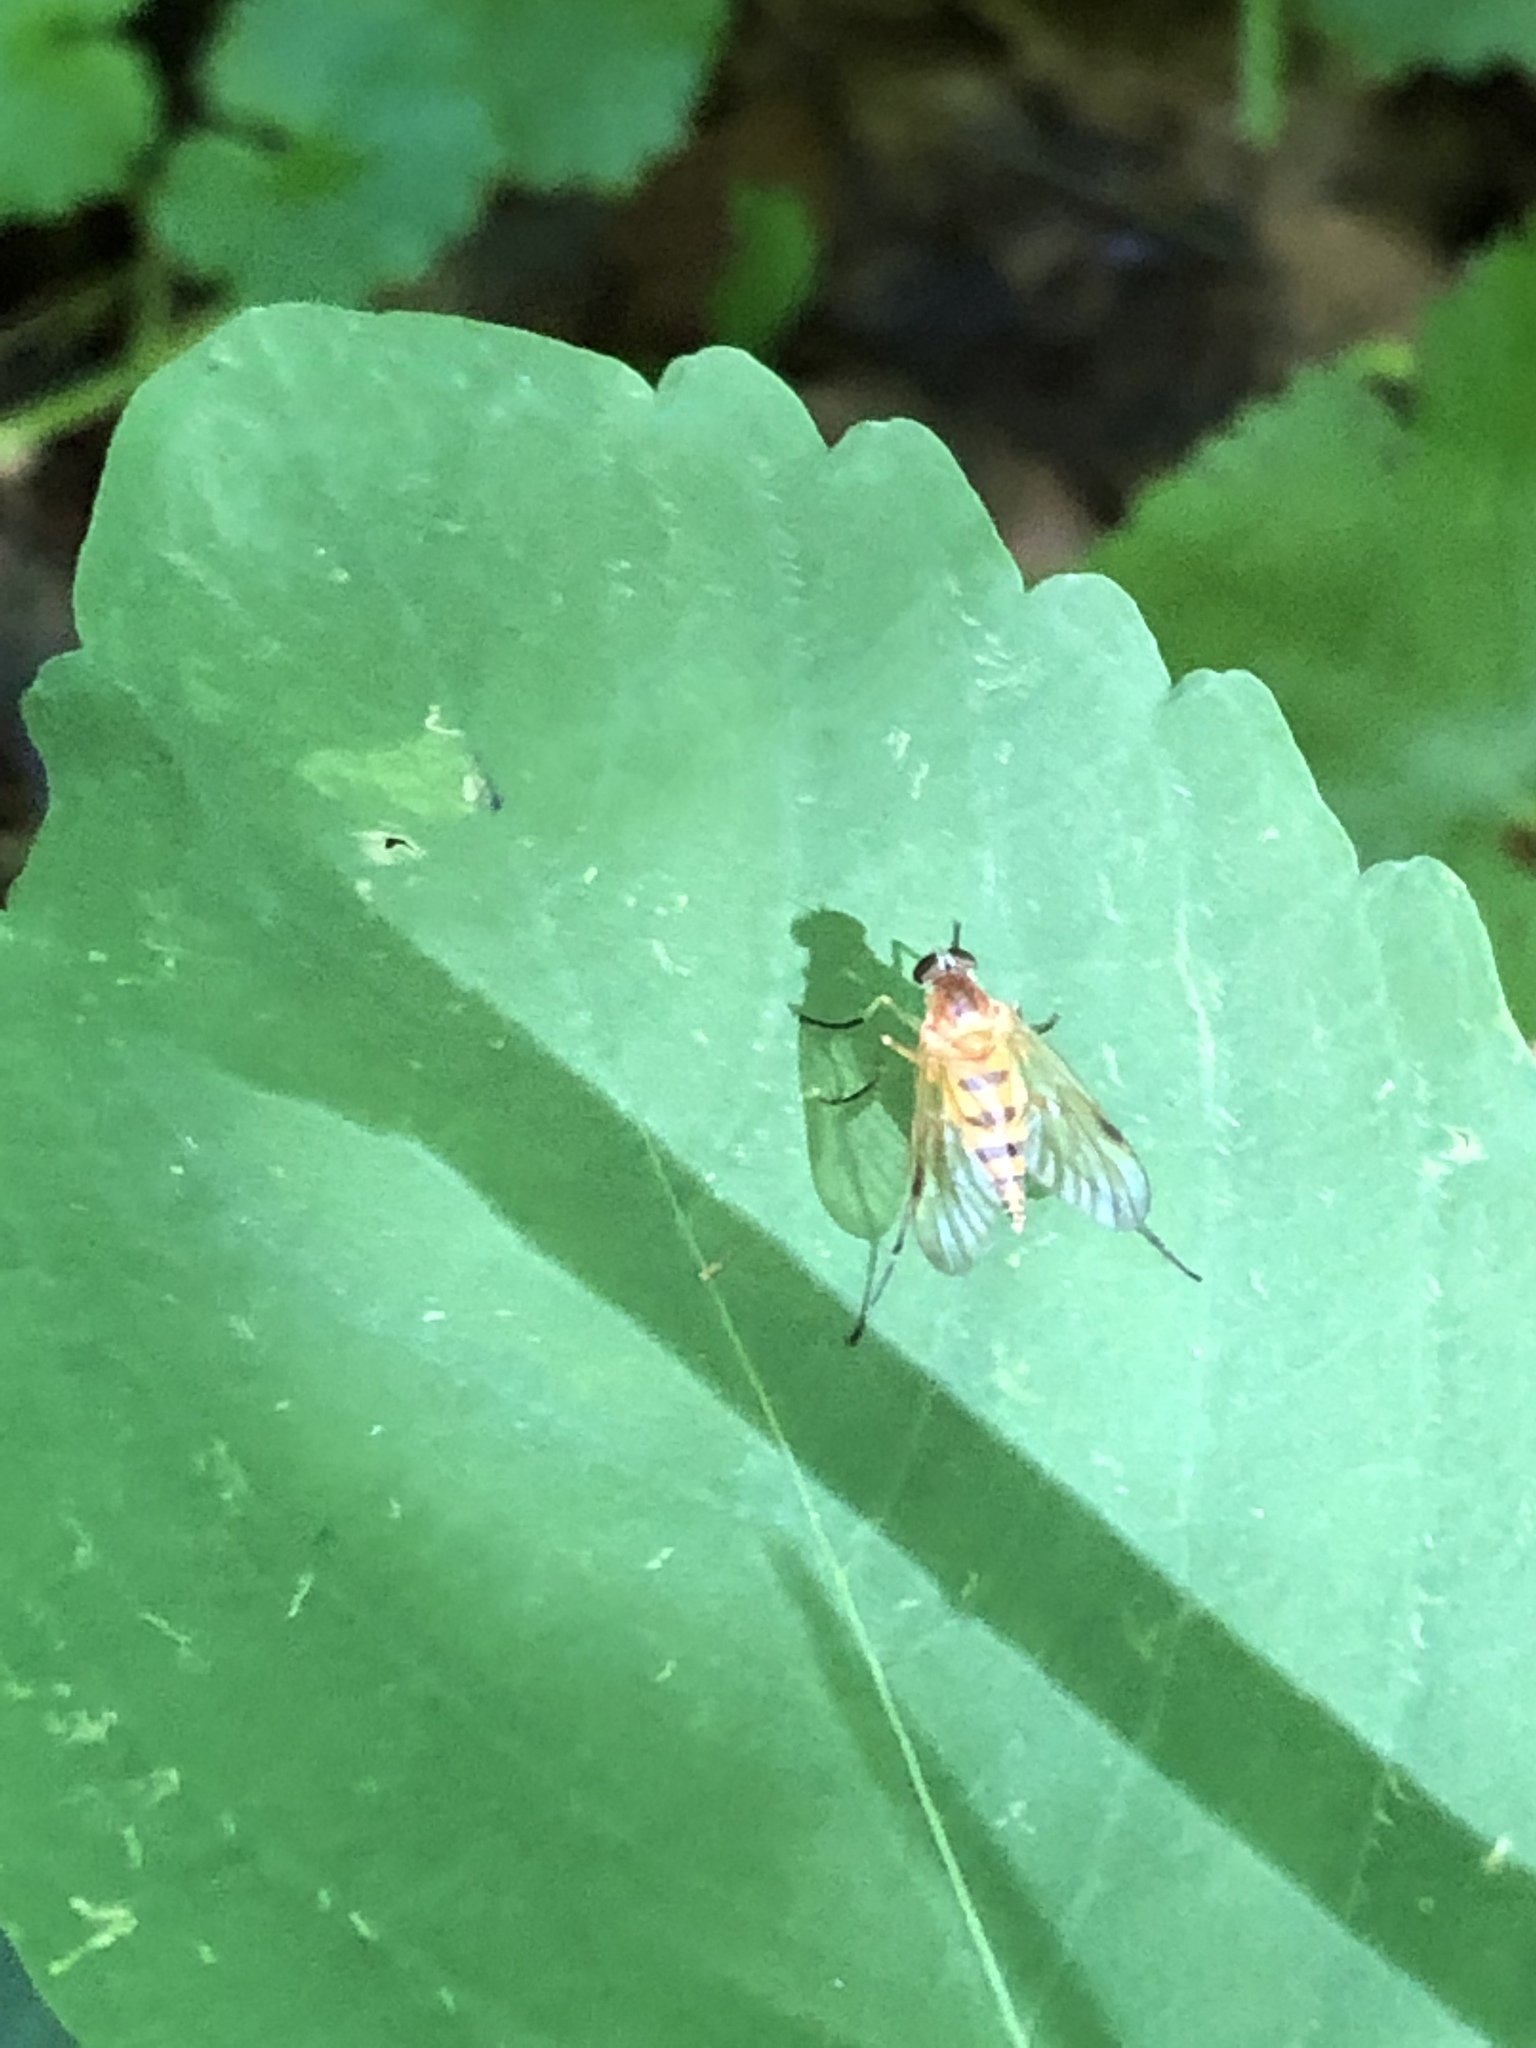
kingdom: Animalia
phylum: Arthropoda
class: Insecta
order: Diptera
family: Rhagionidae
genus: Rhagio
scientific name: Rhagio hirta
